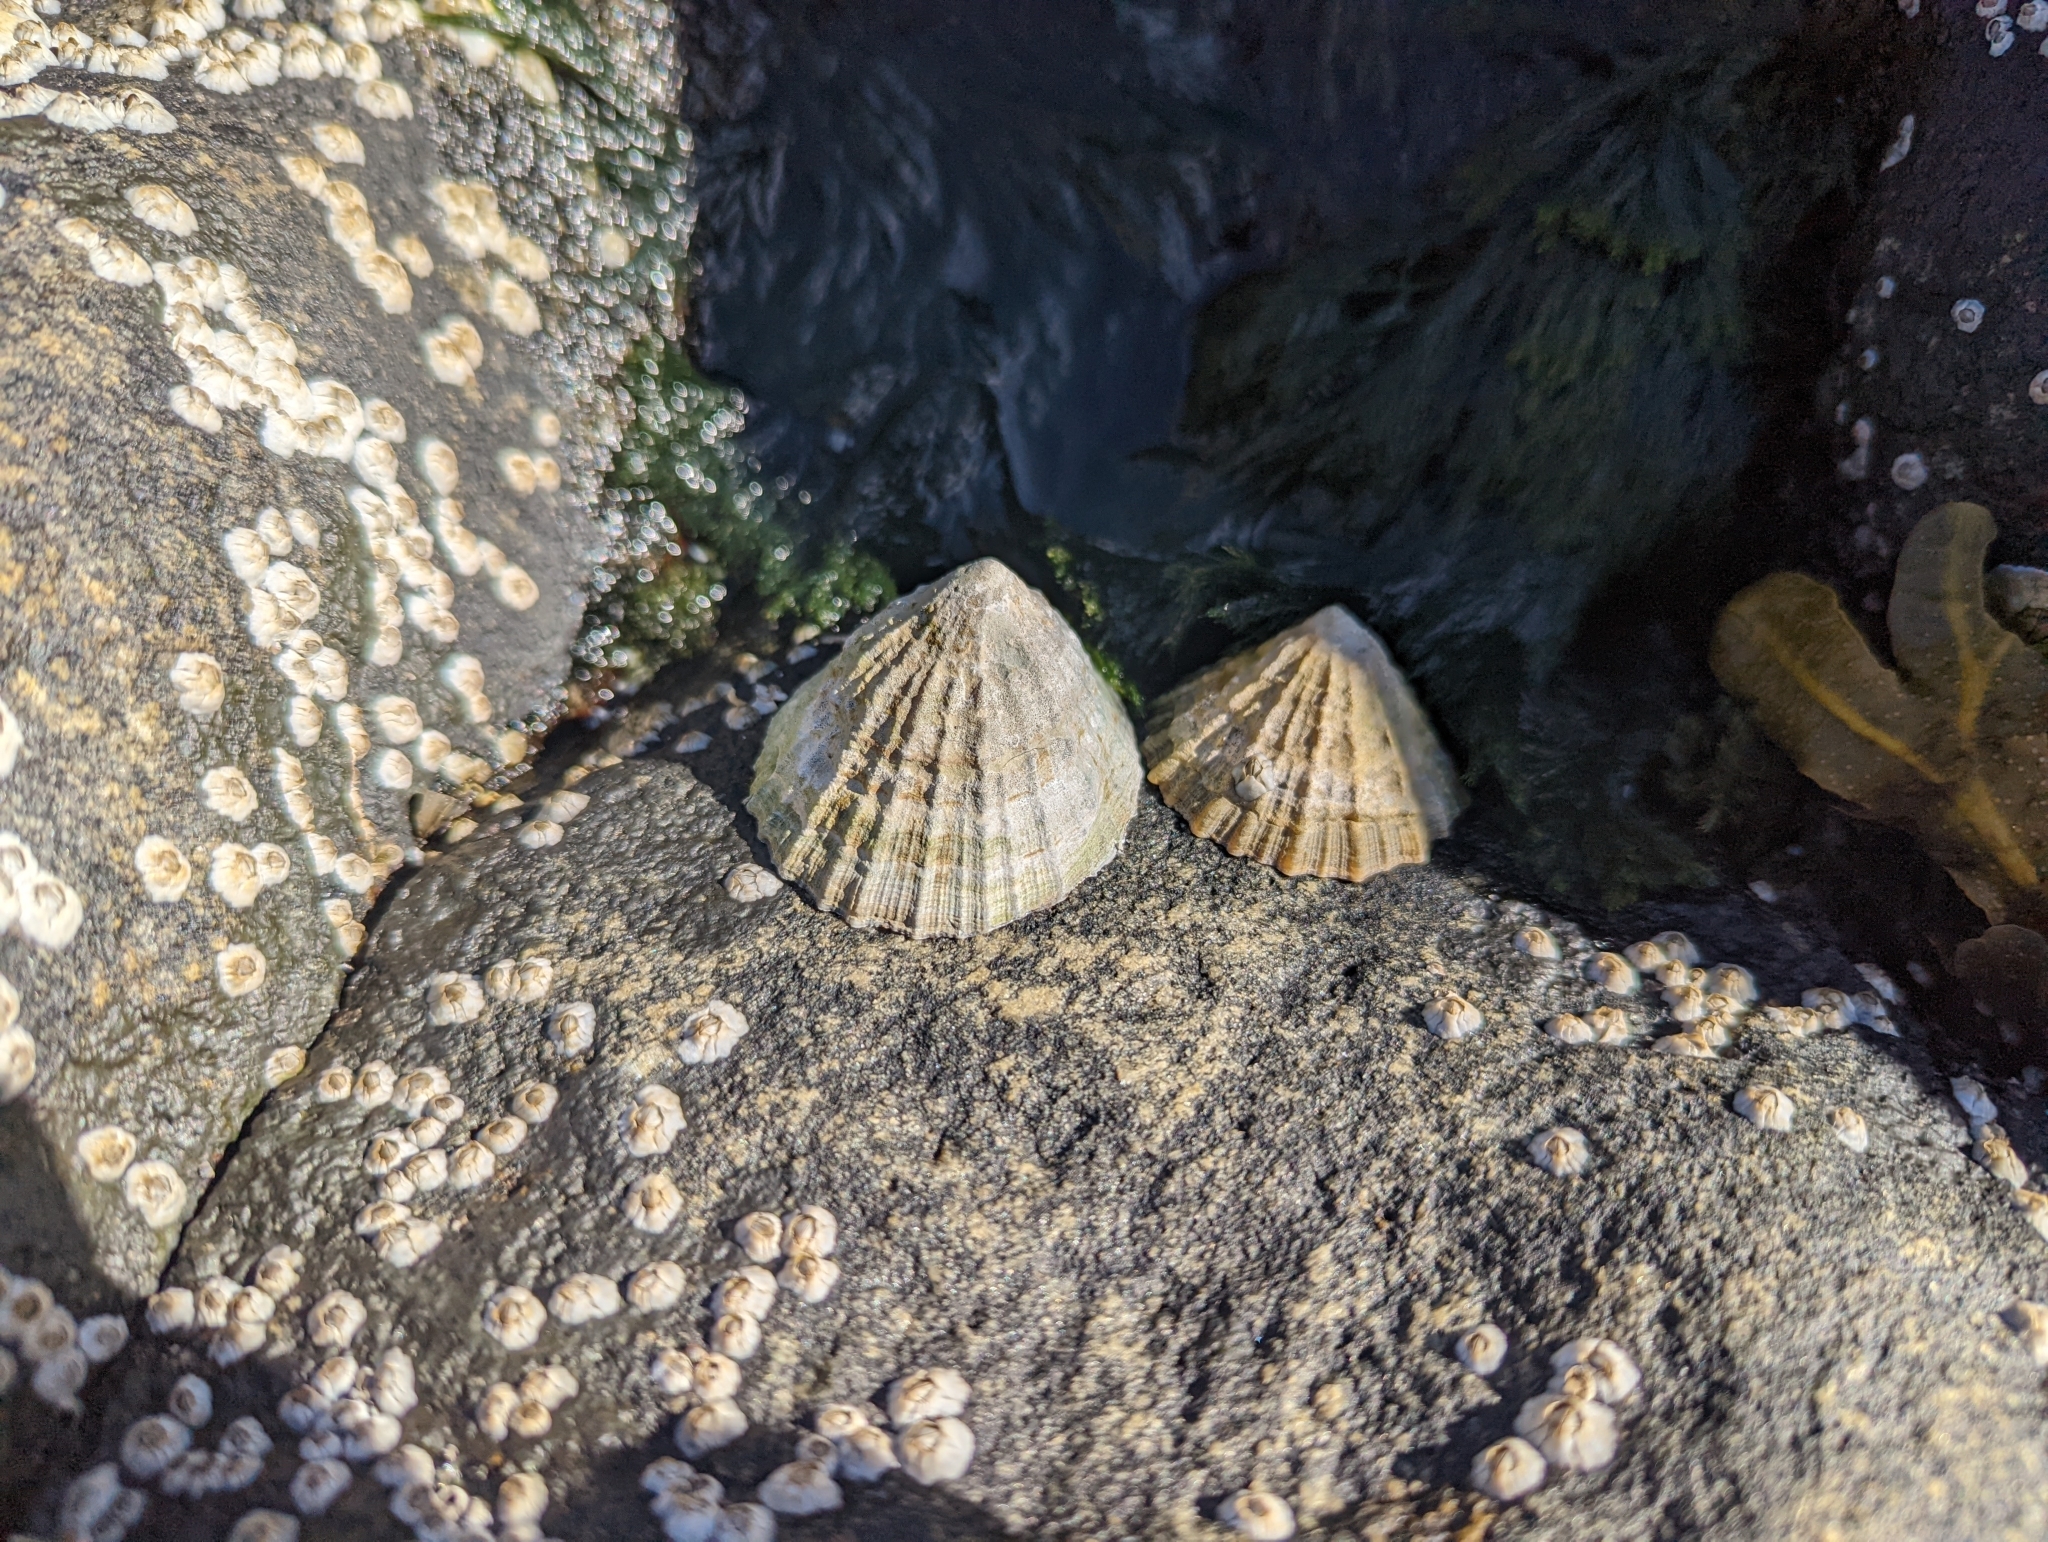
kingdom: Animalia
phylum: Mollusca
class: Gastropoda
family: Patellidae
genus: Patella
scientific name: Patella vulgata
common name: Common limpet
